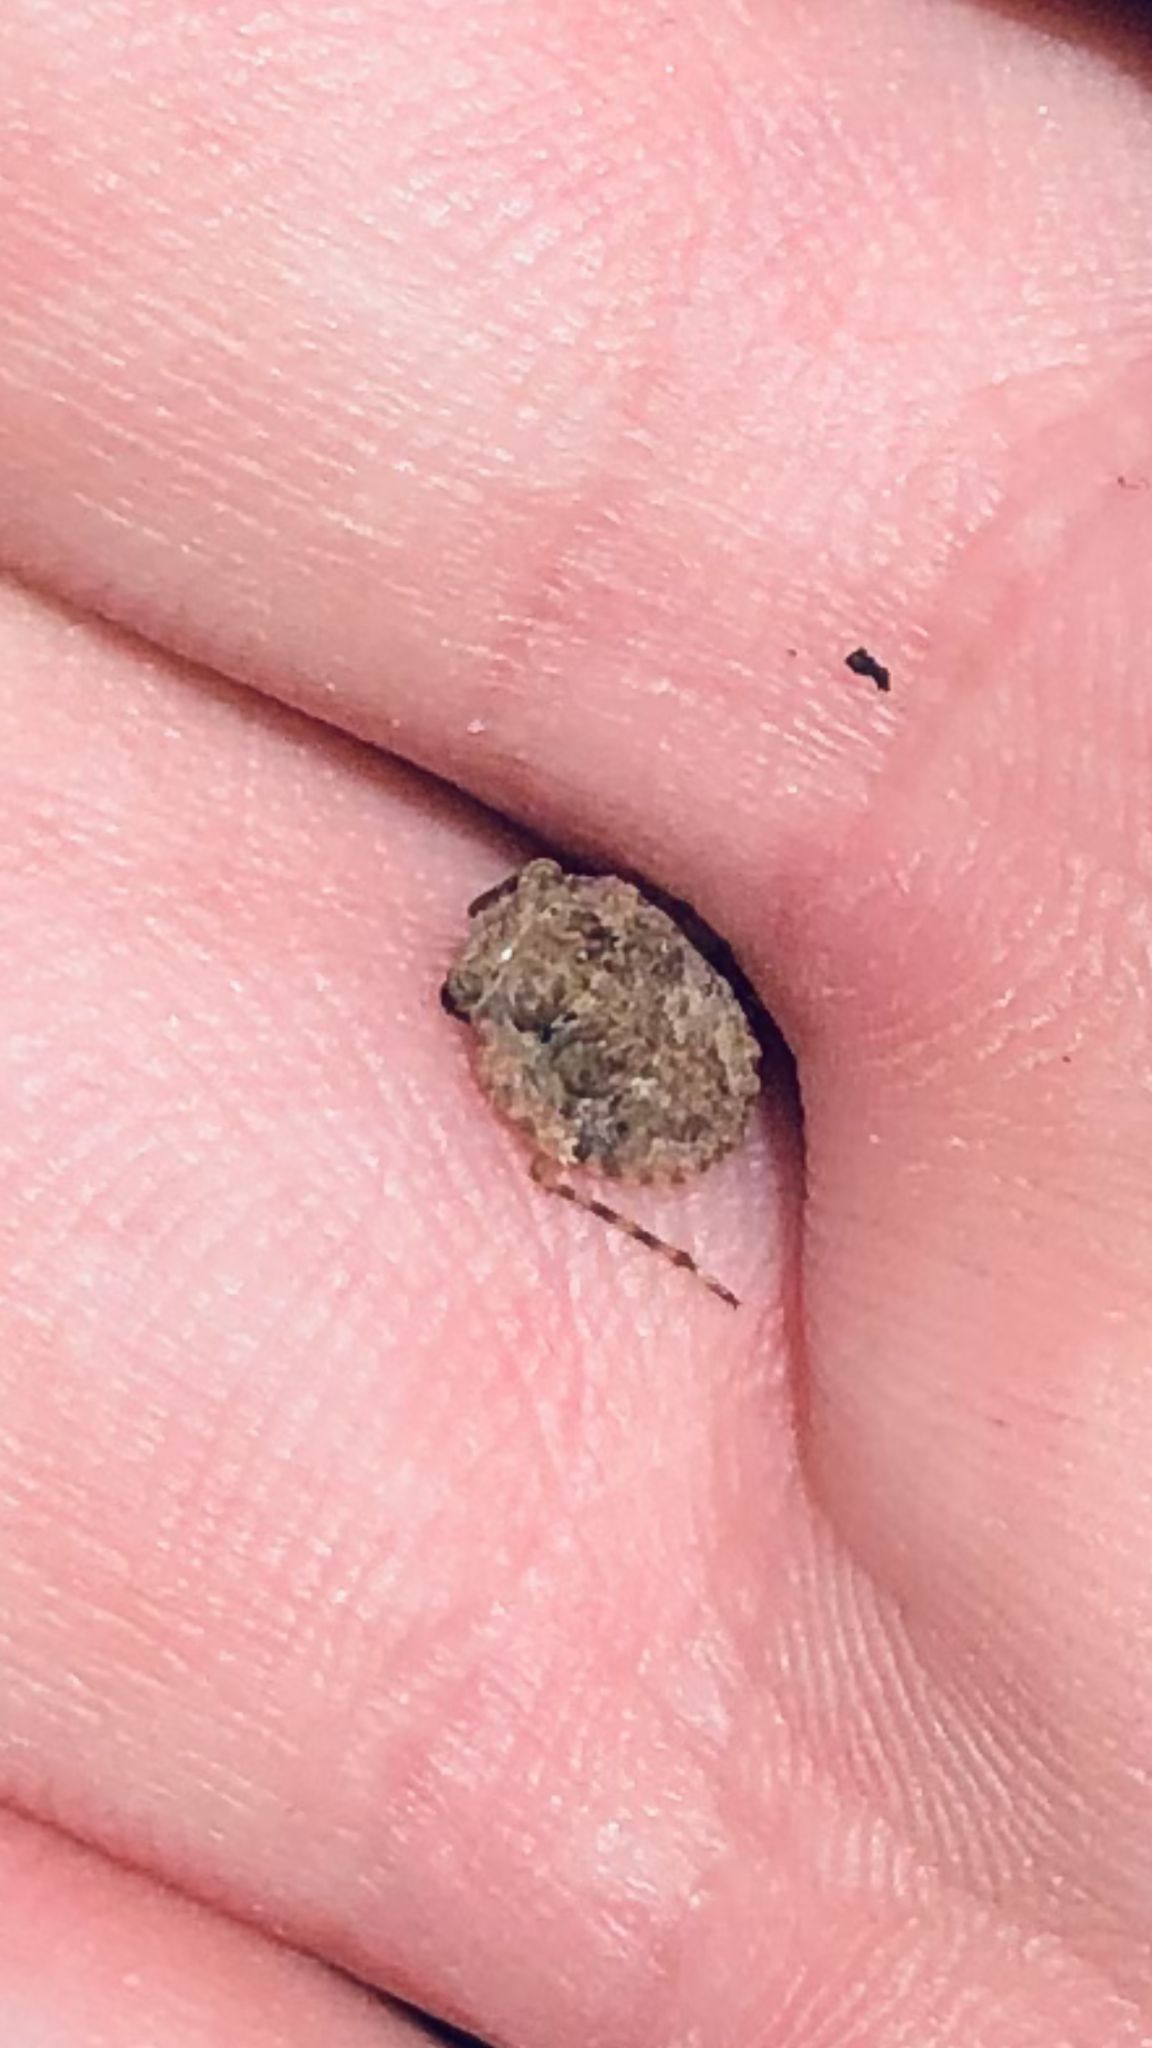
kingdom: Animalia
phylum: Arthropoda
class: Insecta
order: Hemiptera
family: Gelastocoridae
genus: Gelastocoris
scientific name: Gelastocoris oculatus
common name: Toad bug
